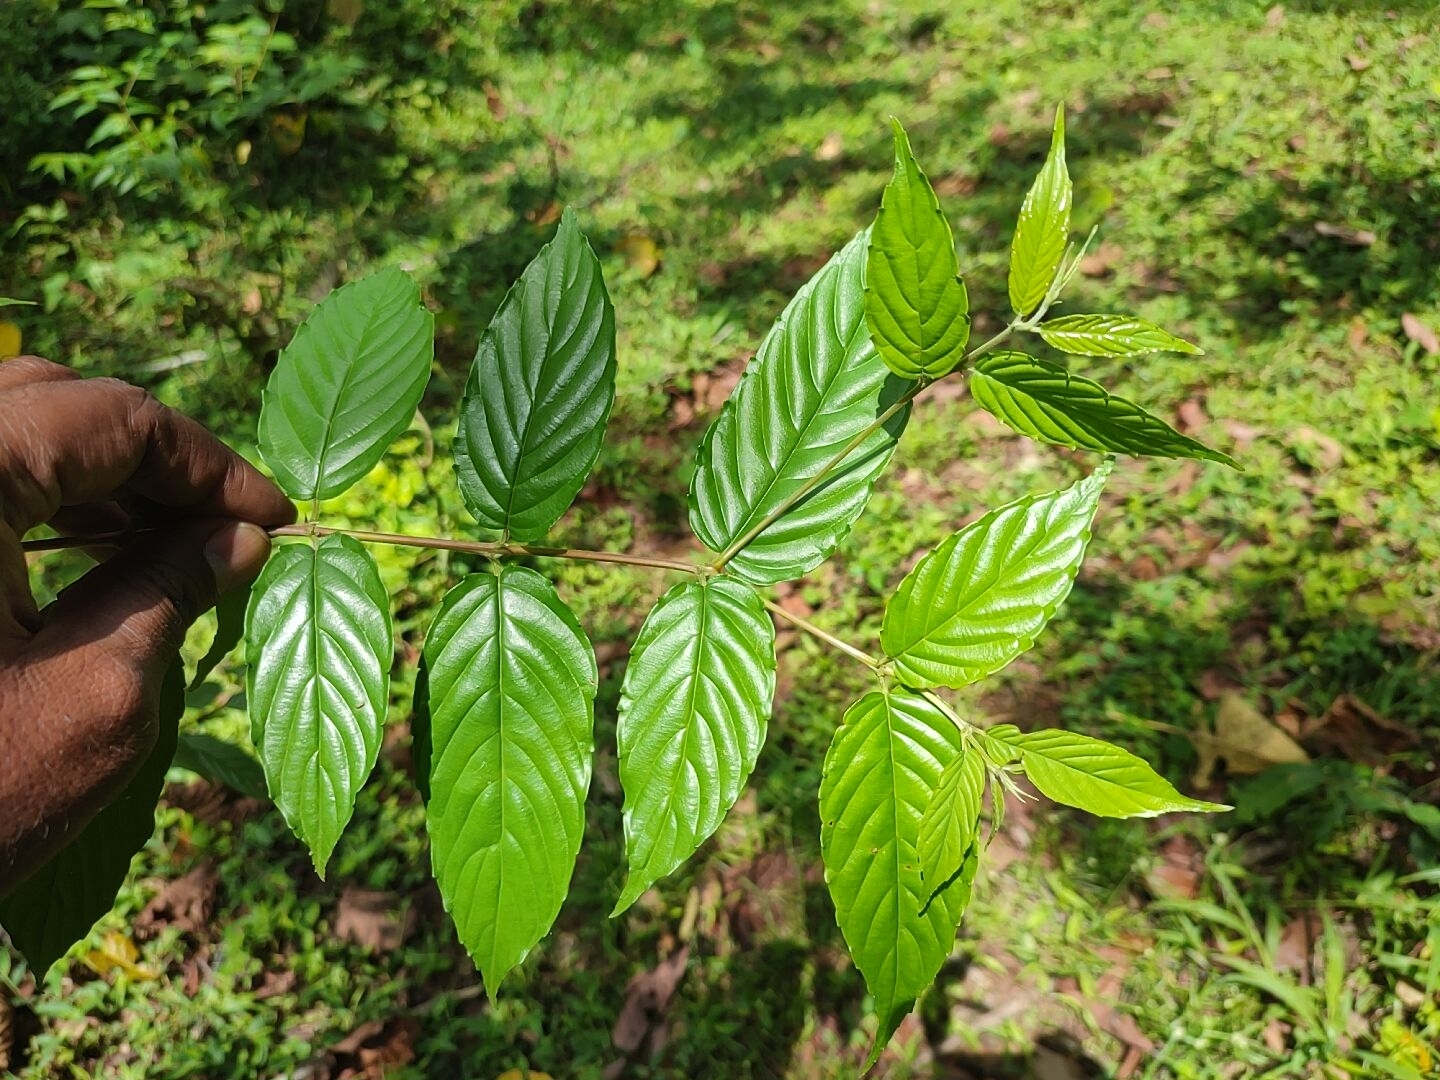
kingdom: Plantae
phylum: Tracheophyta
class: Magnoliopsida
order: Rosales
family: Rhamnaceae
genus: Maesopsis
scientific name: Maesopsis eminii
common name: Umbrella tree
